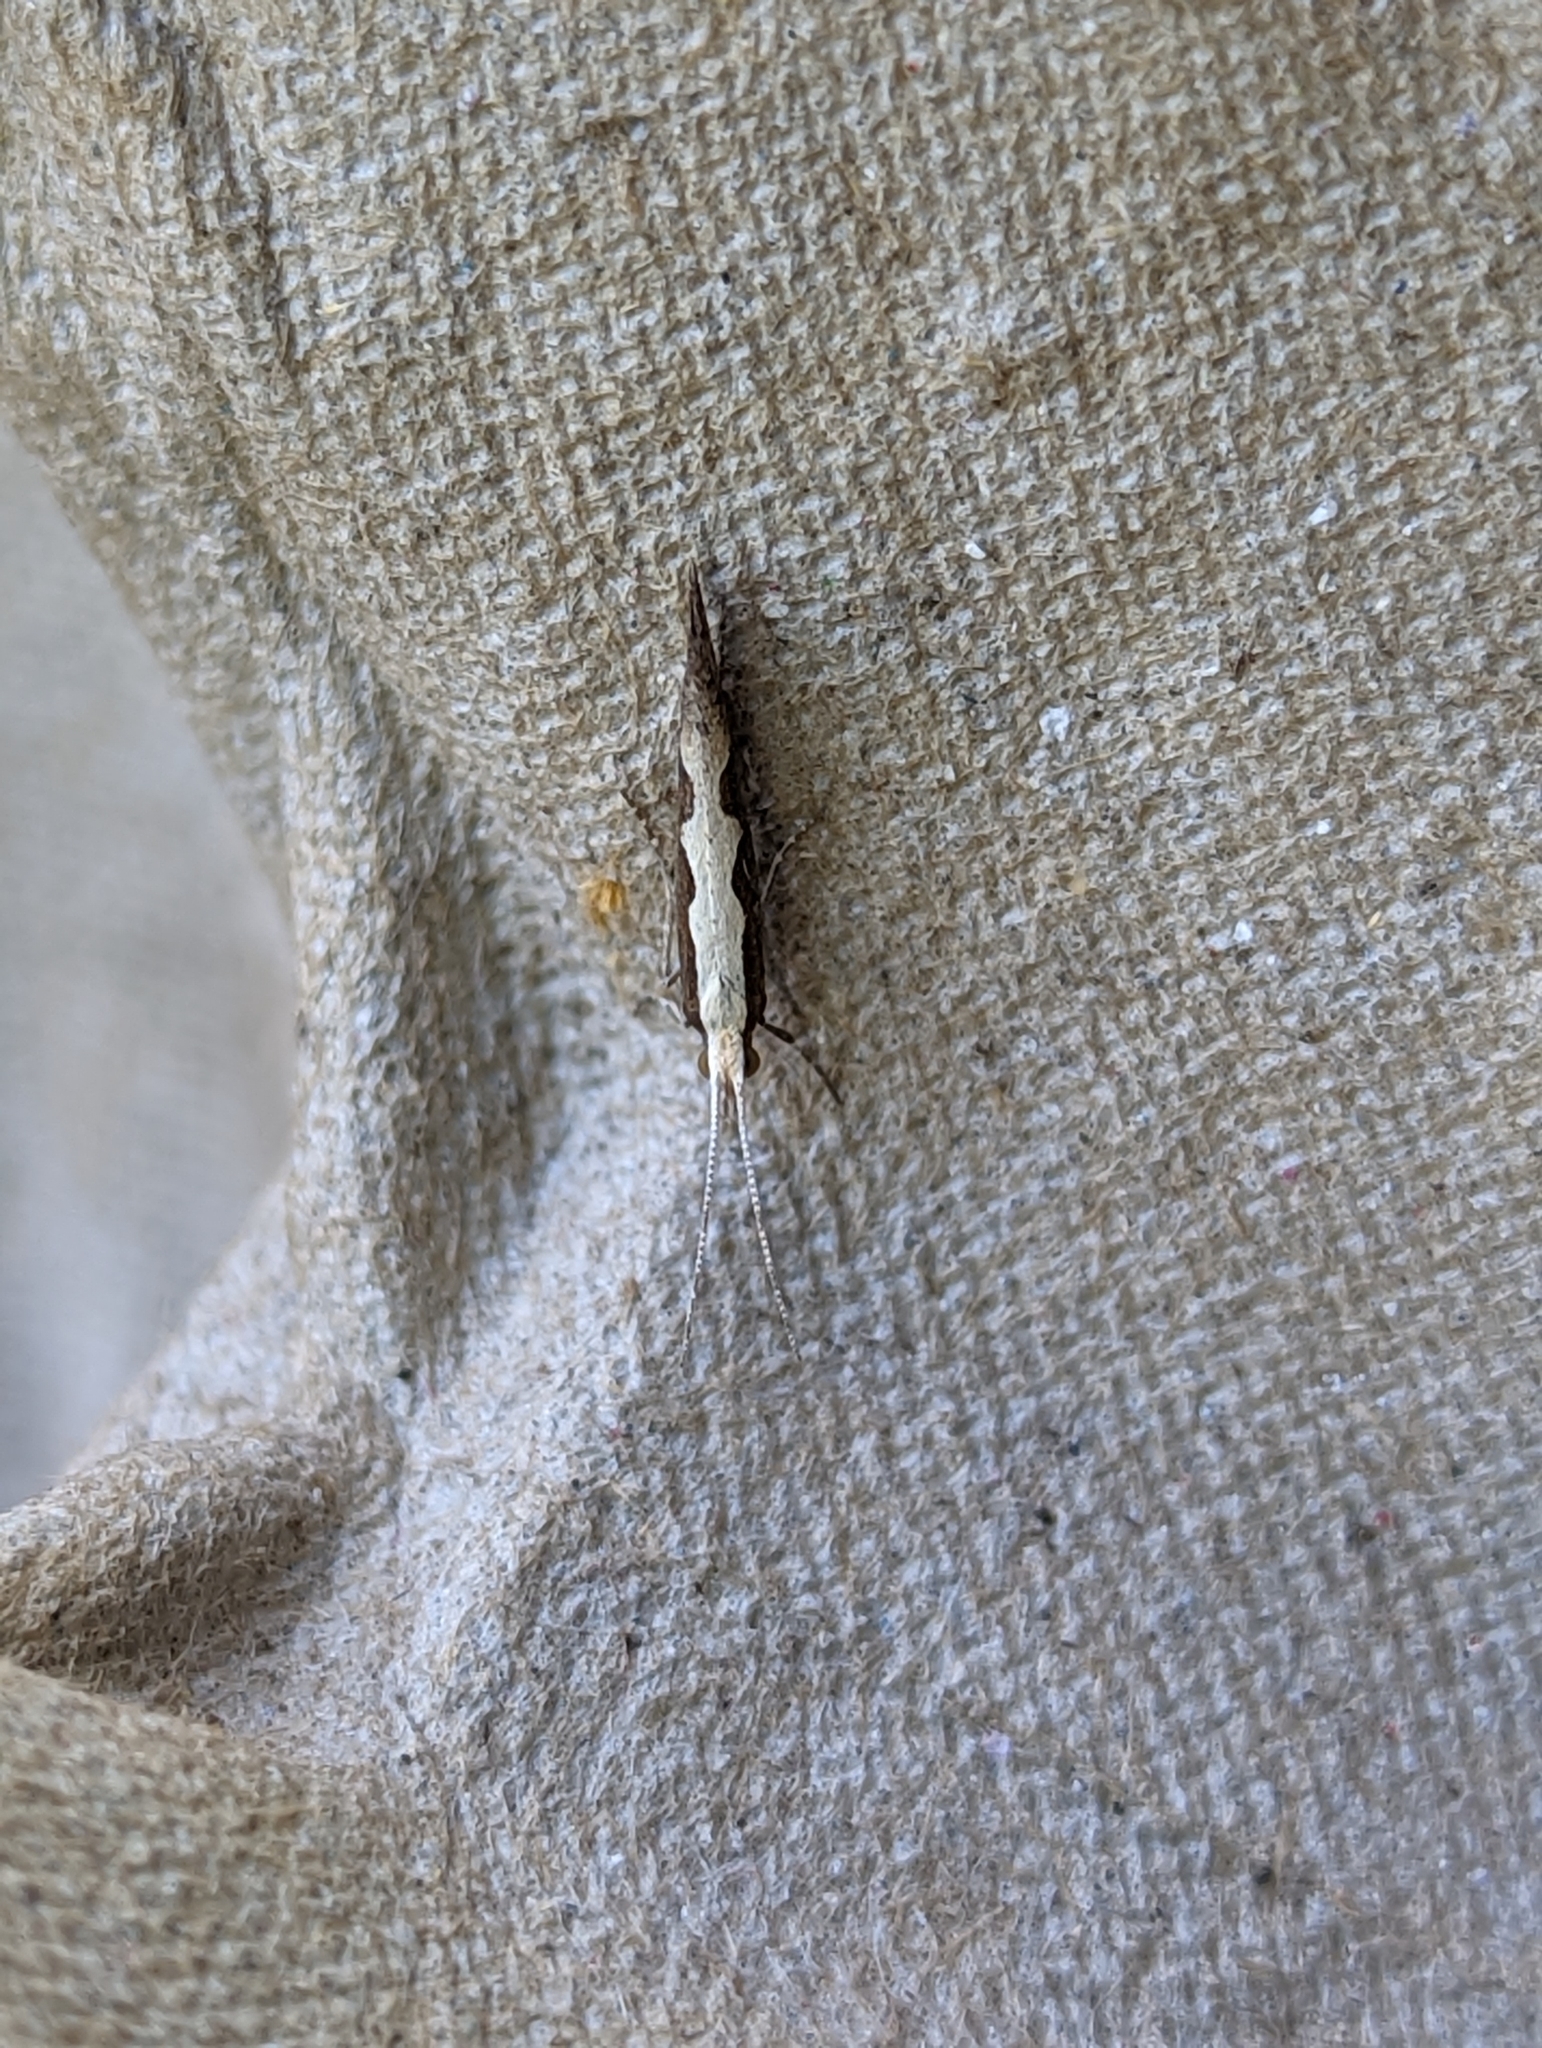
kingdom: Animalia
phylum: Arthropoda
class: Insecta
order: Lepidoptera
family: Plutellidae
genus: Plutella
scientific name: Plutella xylostella
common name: Diamond-back moth
